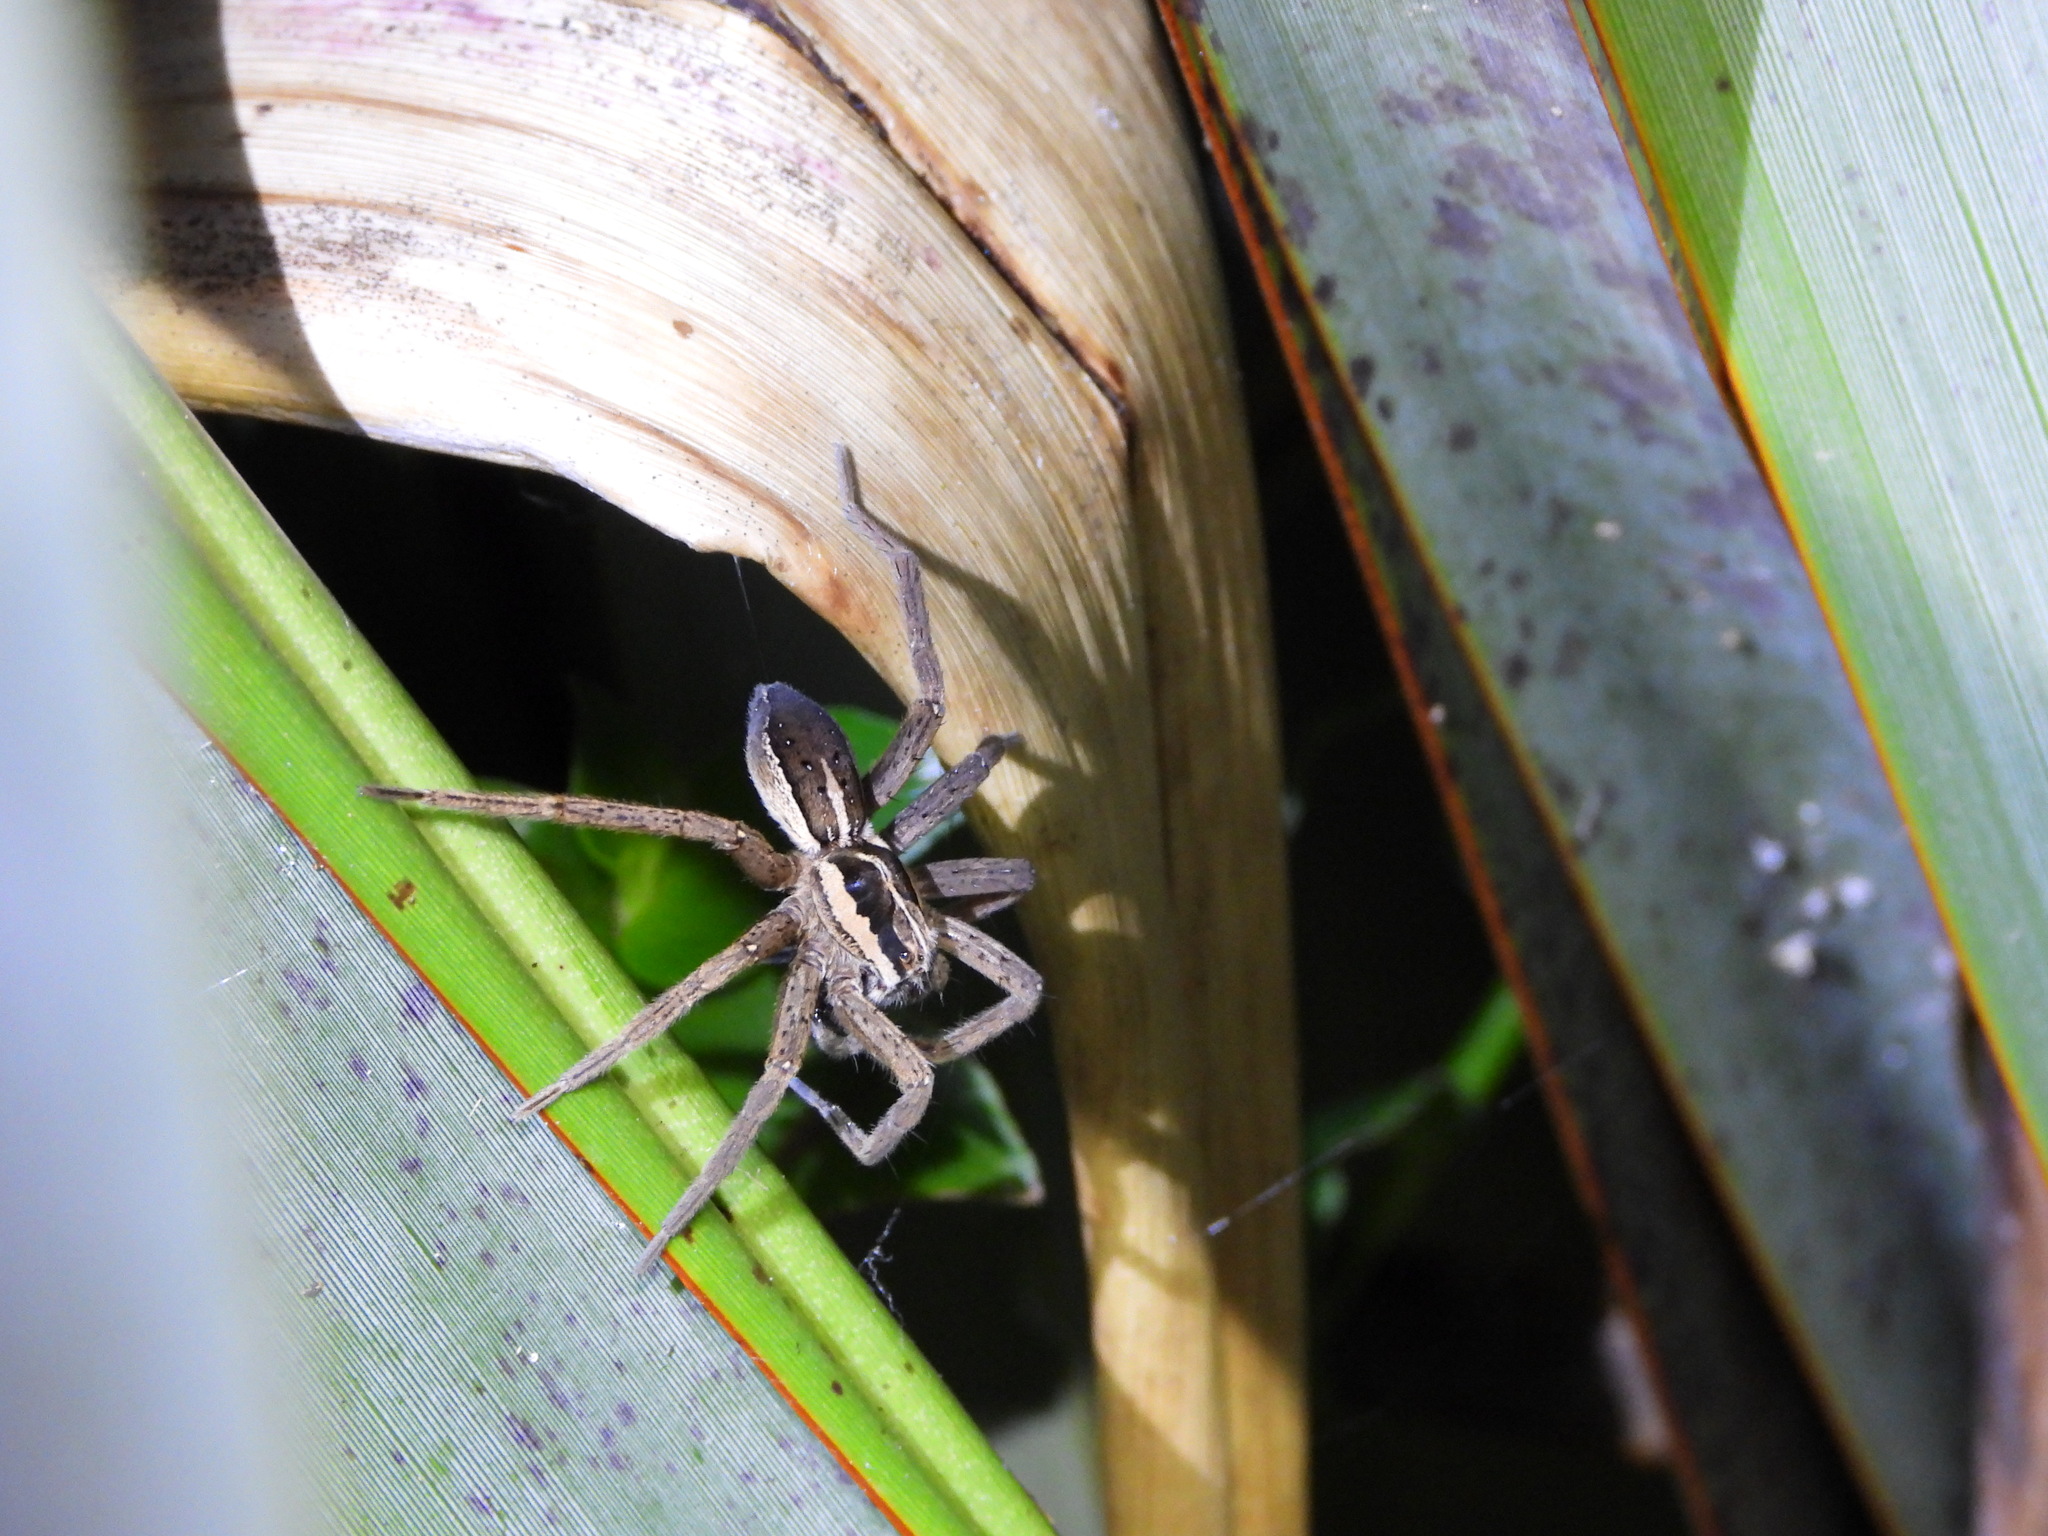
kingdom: Animalia
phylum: Arthropoda
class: Arachnida
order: Araneae
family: Pisauridae
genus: Dolomedes
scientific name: Dolomedes minor
